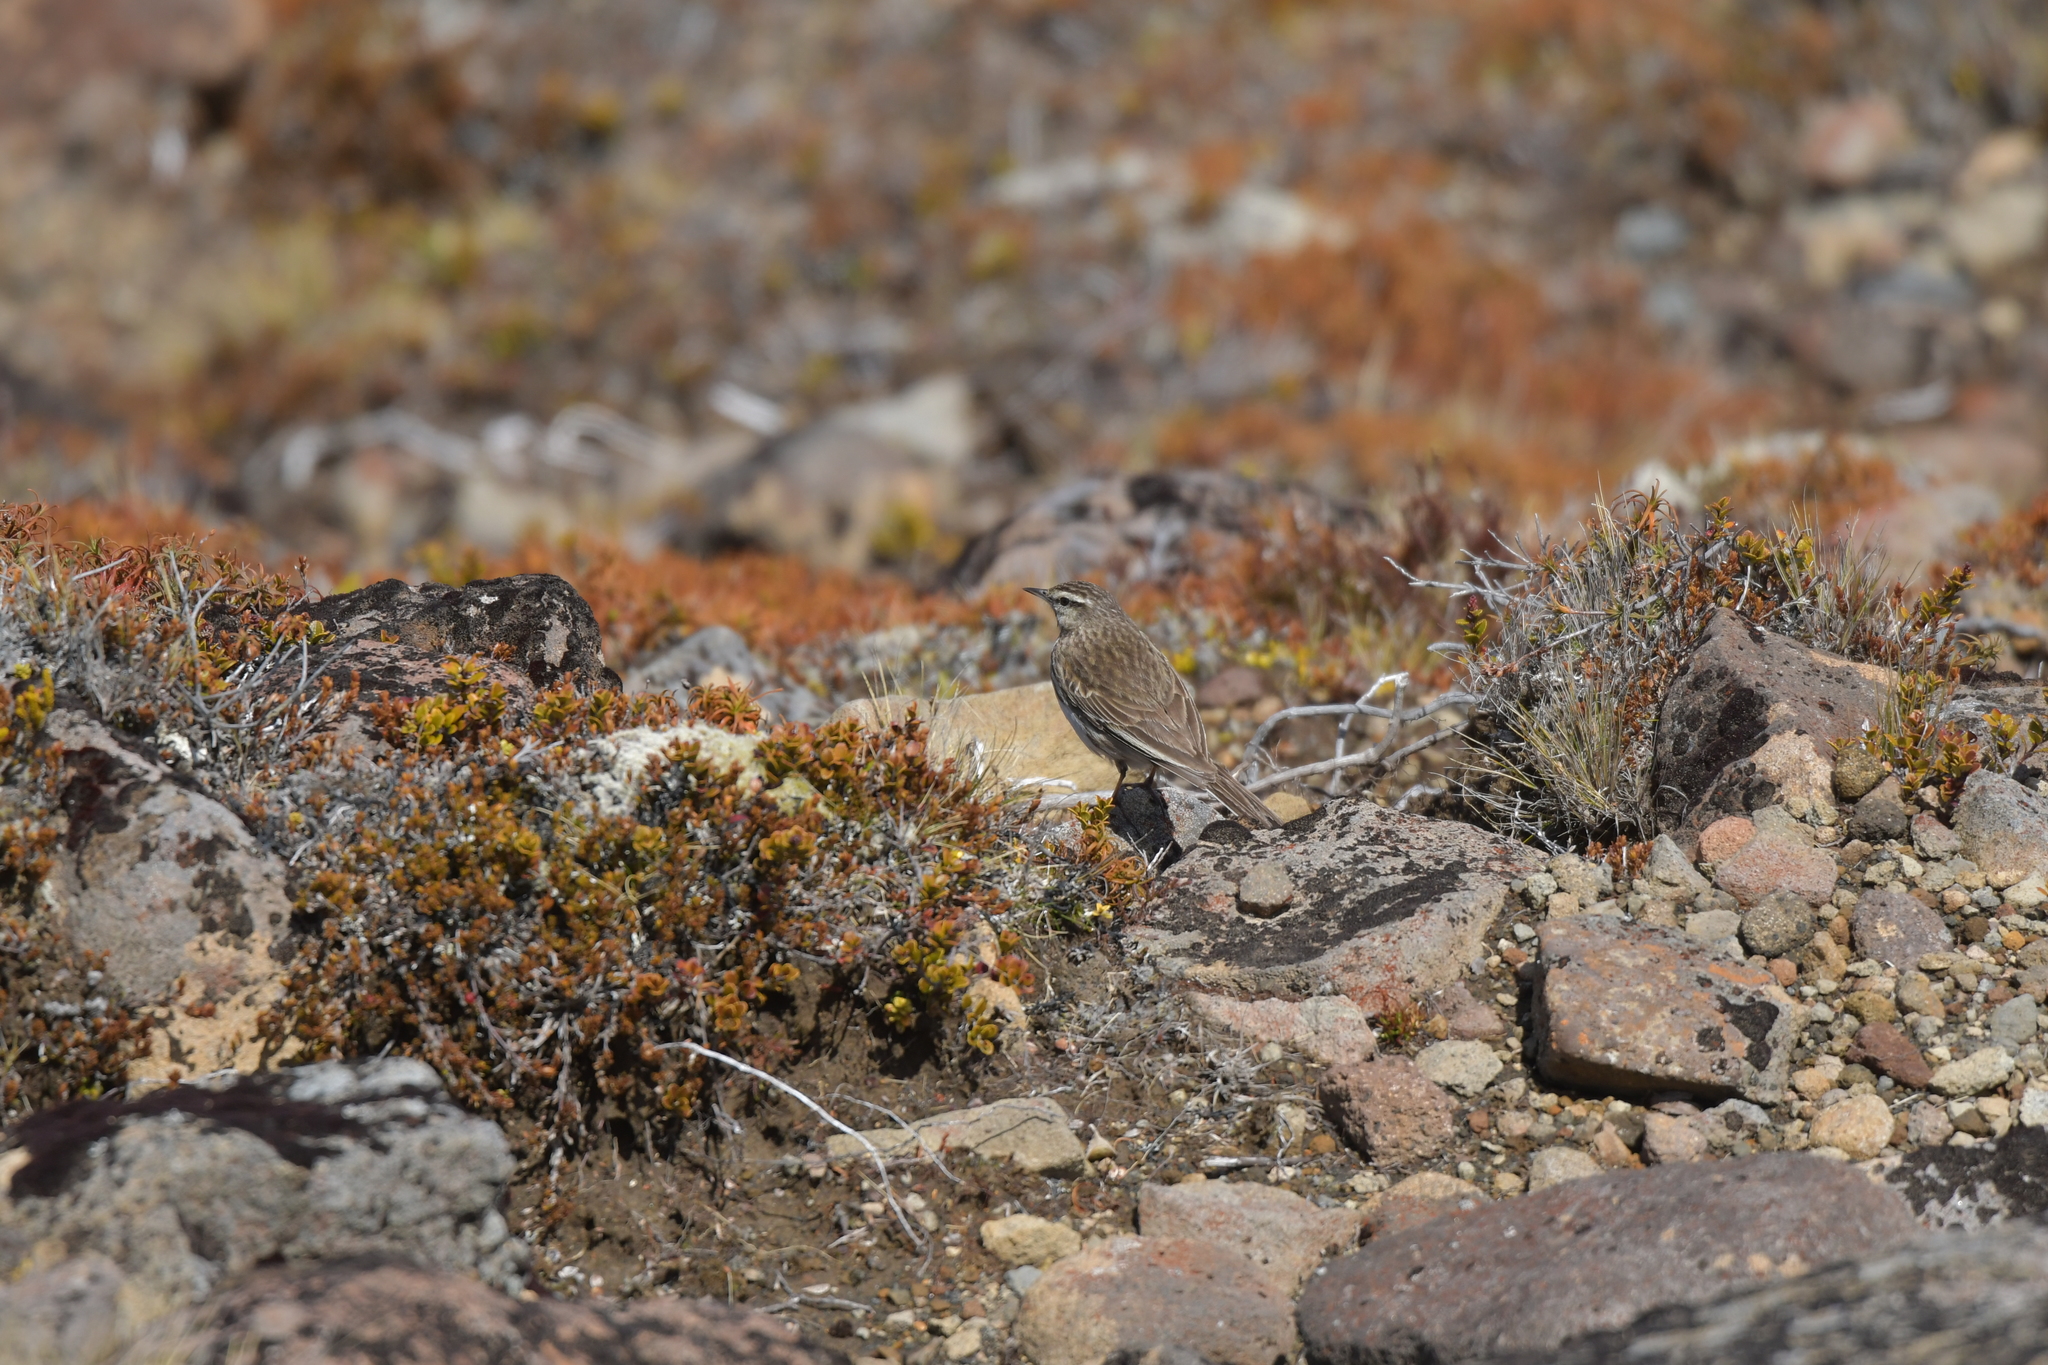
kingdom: Animalia
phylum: Chordata
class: Aves
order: Passeriformes
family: Motacillidae
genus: Anthus
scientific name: Anthus novaeseelandiae
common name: New zealand pipit
